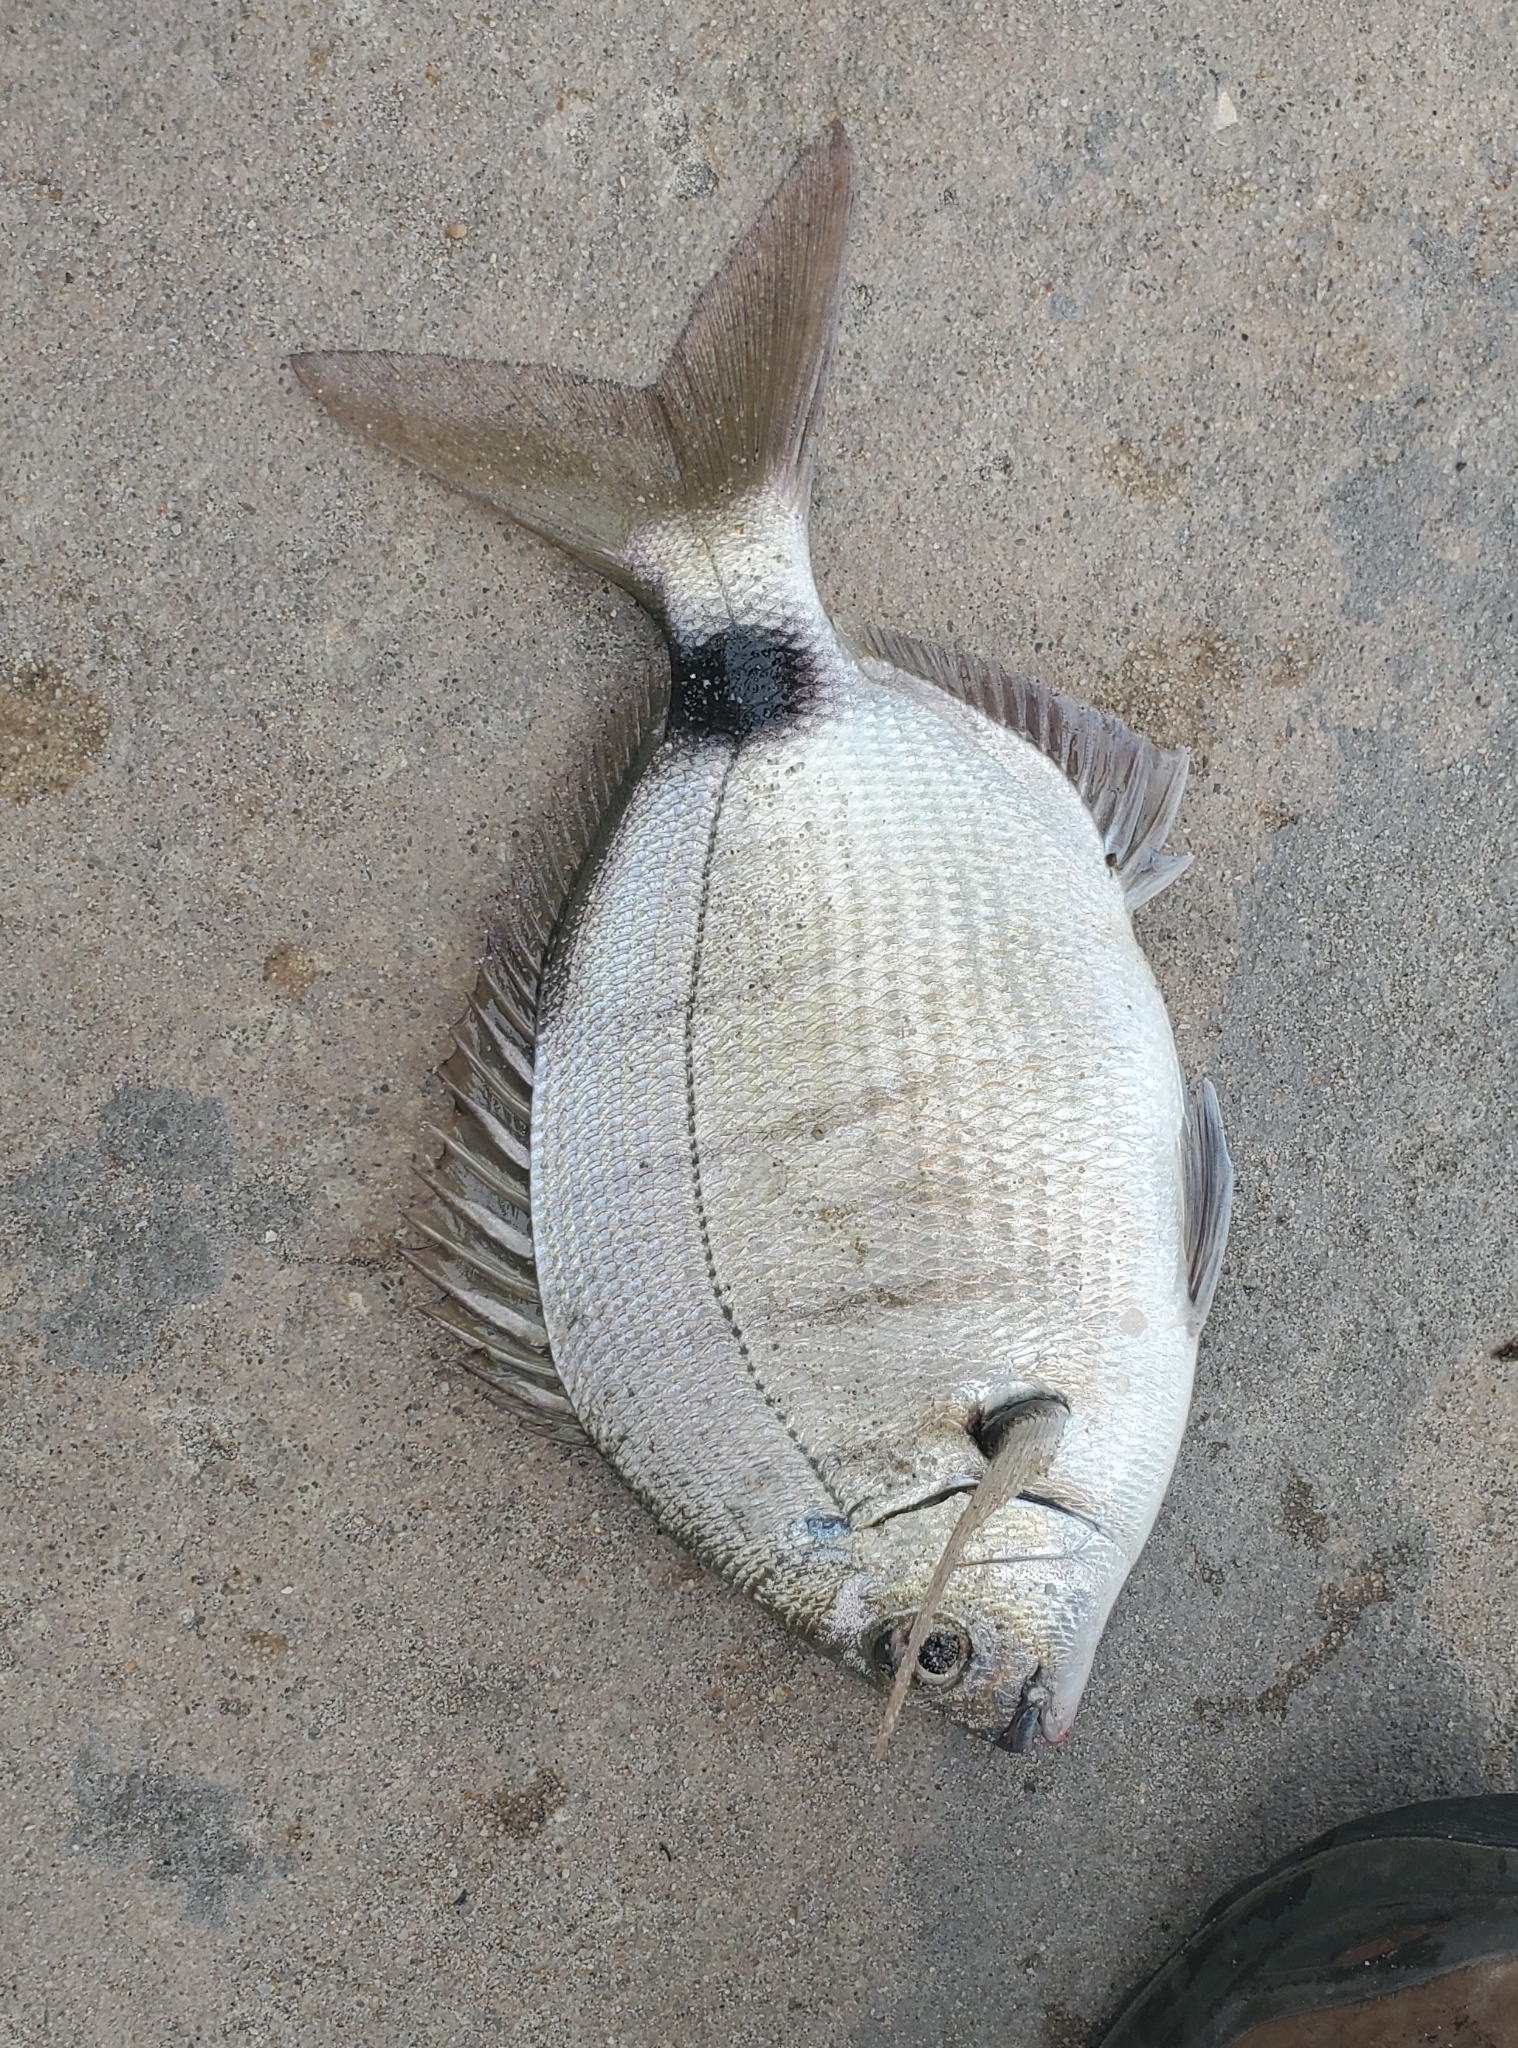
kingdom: Animalia
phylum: Chordata
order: Perciformes
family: Sparidae
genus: Diplodus
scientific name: Diplodus holbrookii
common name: Porgy
